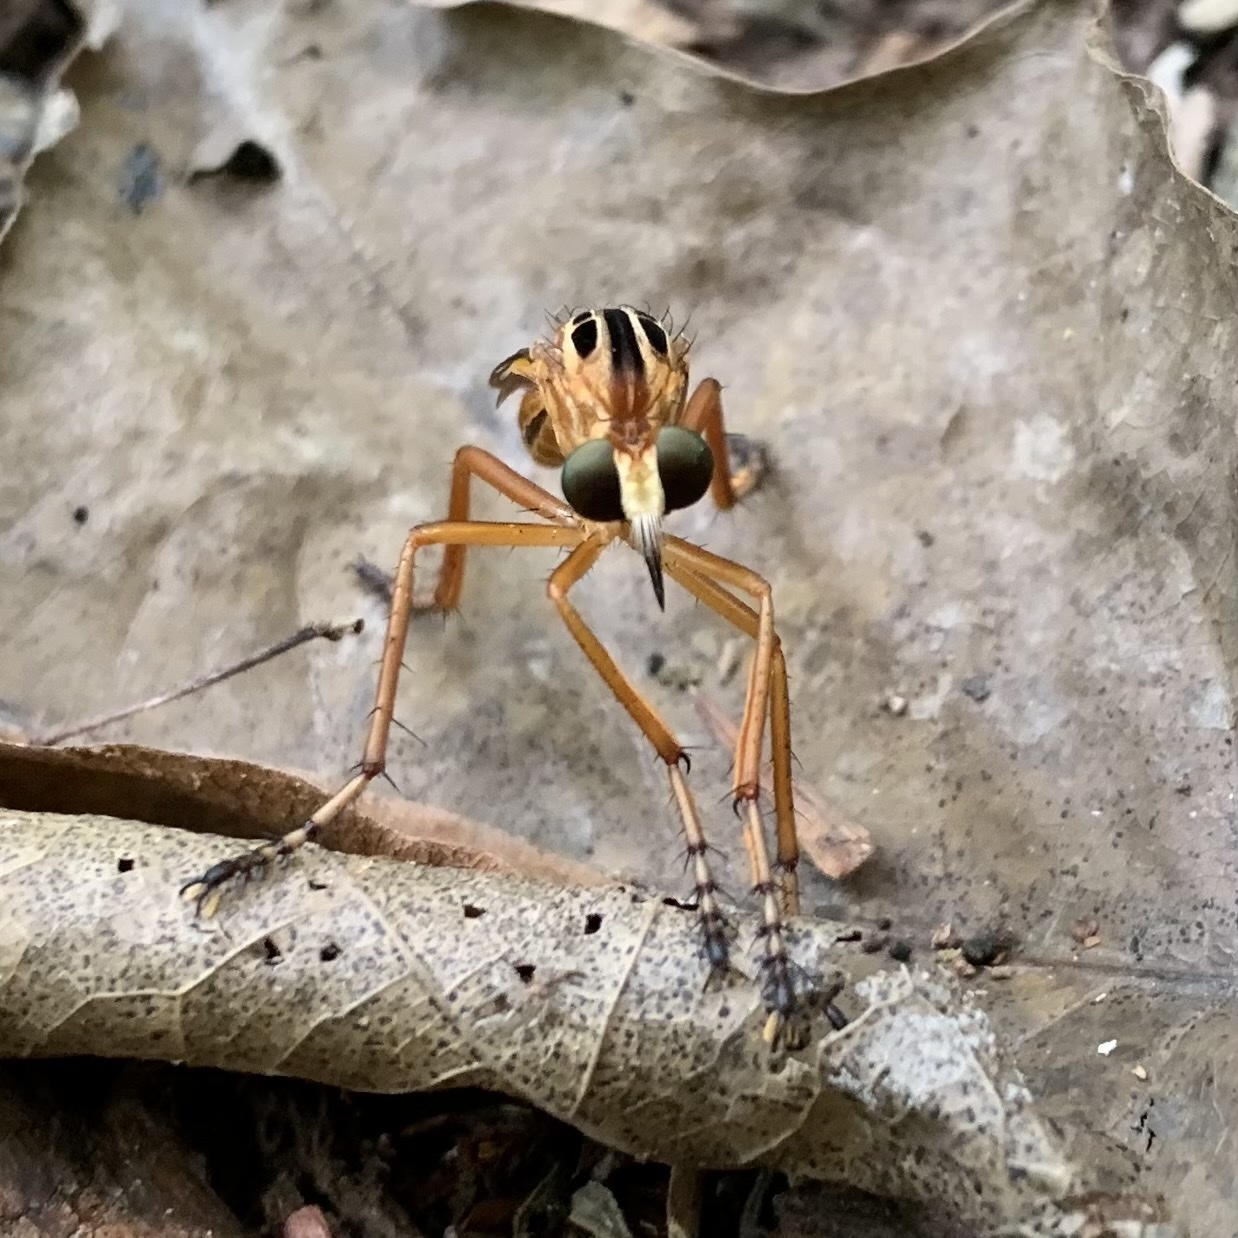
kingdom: Animalia
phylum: Arthropoda
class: Insecta
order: Diptera
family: Asilidae
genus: Diogmites
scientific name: Diogmites neoternatus
